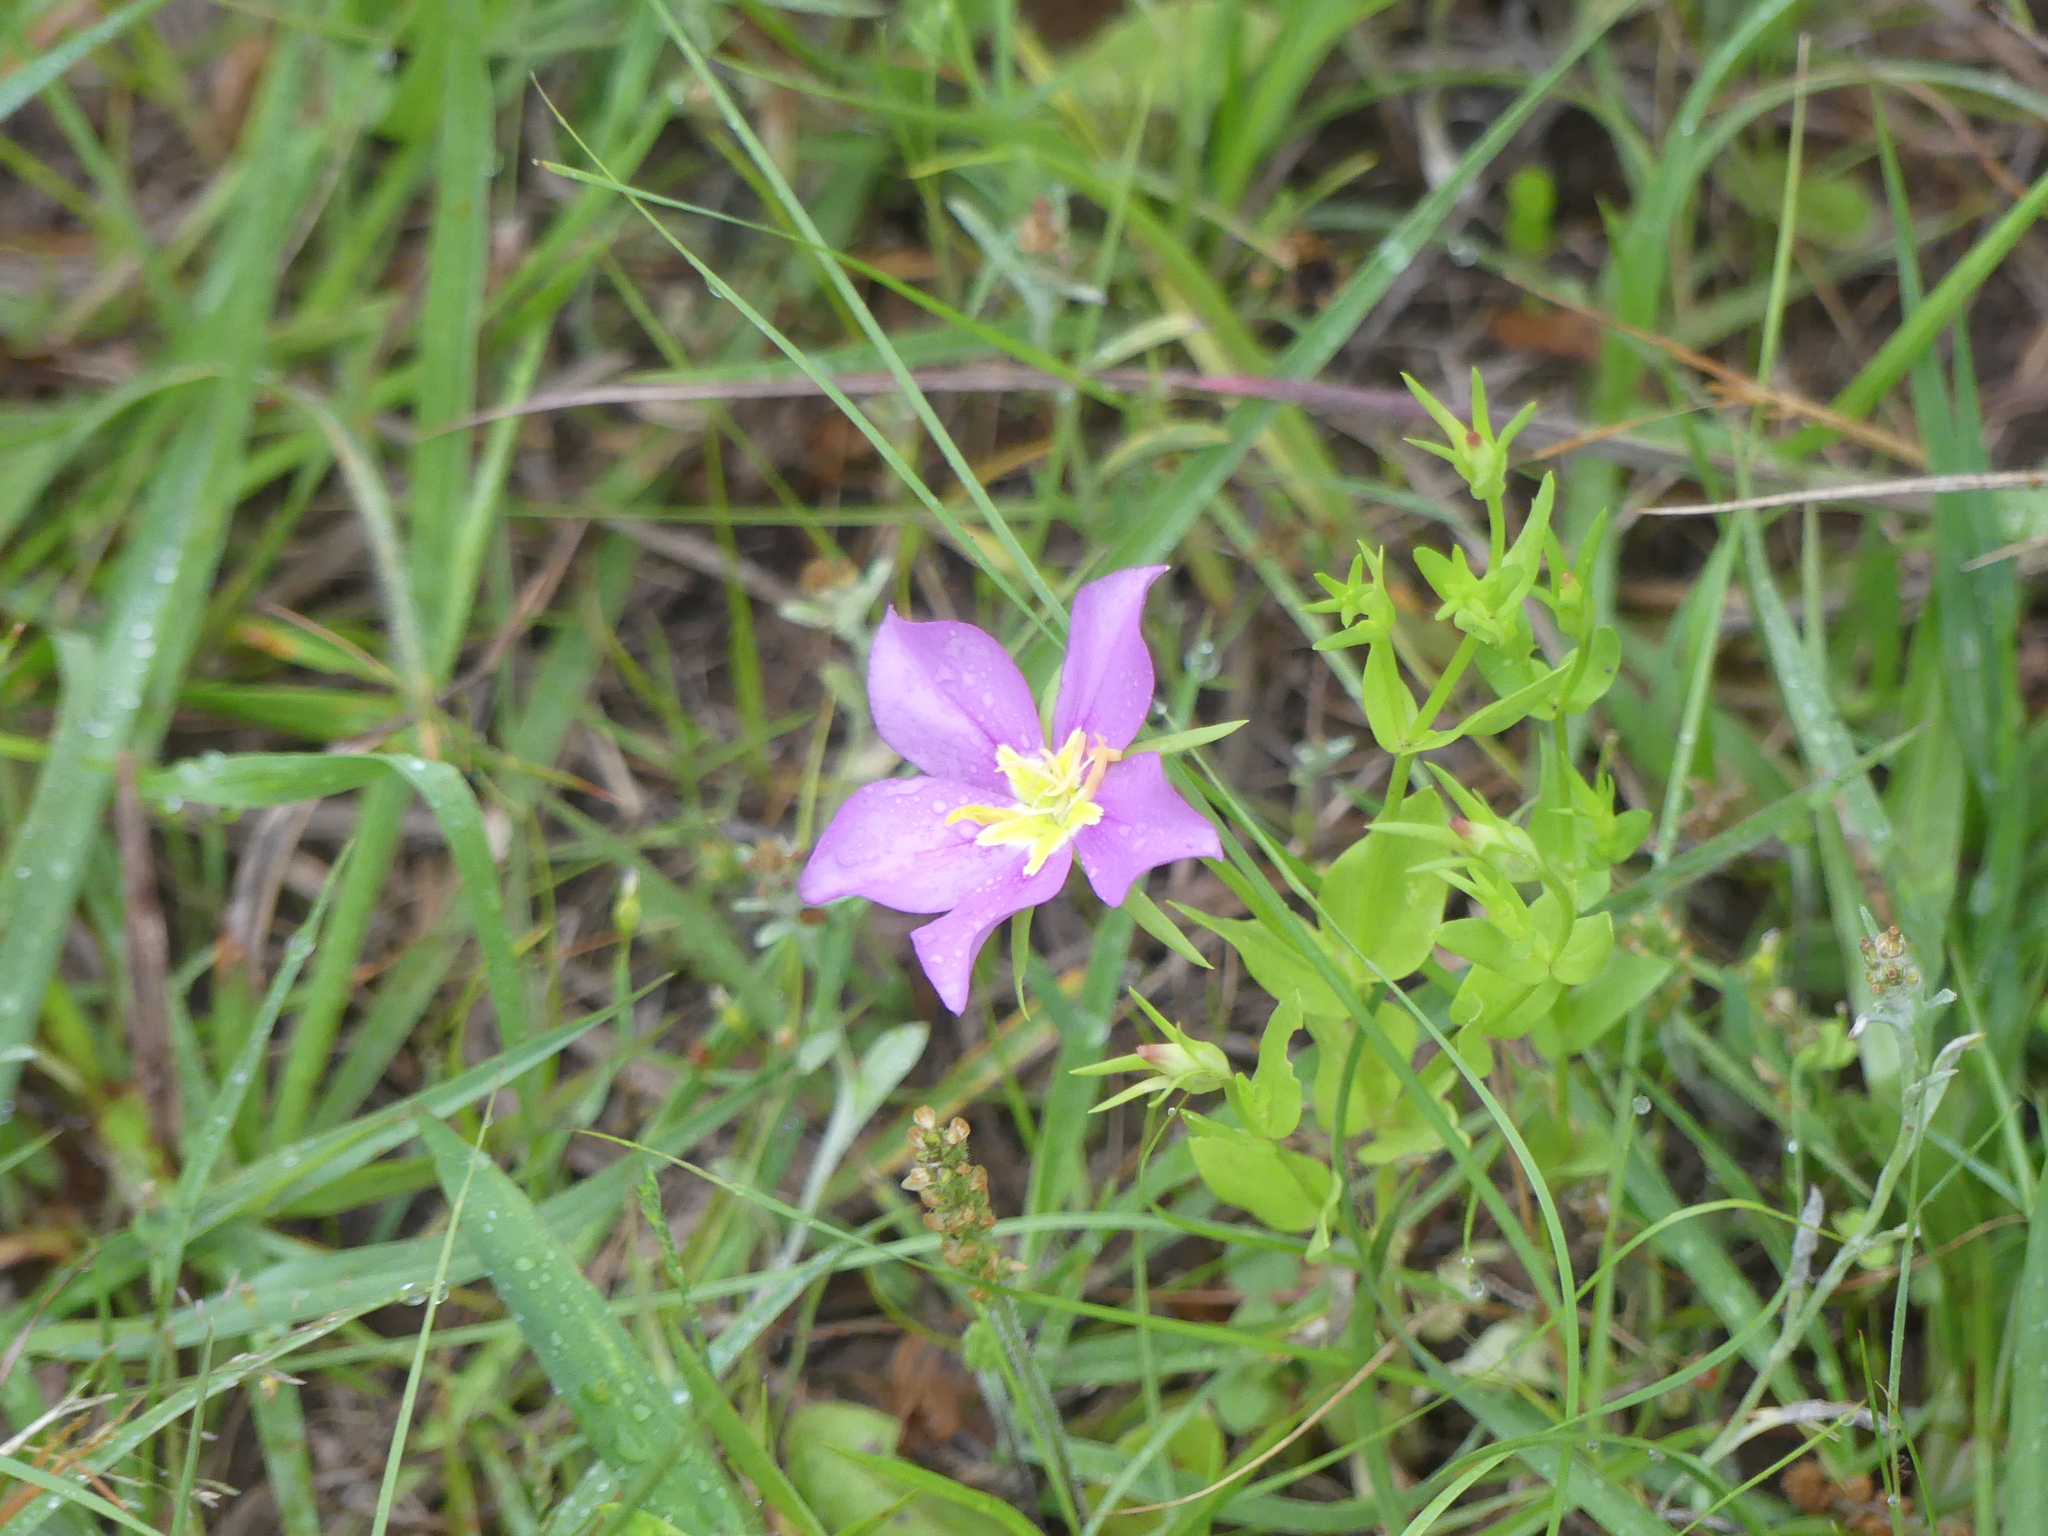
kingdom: Plantae
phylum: Tracheophyta
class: Magnoliopsida
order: Gentianales
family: Gentianaceae
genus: Sabatia
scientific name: Sabatia campestris
